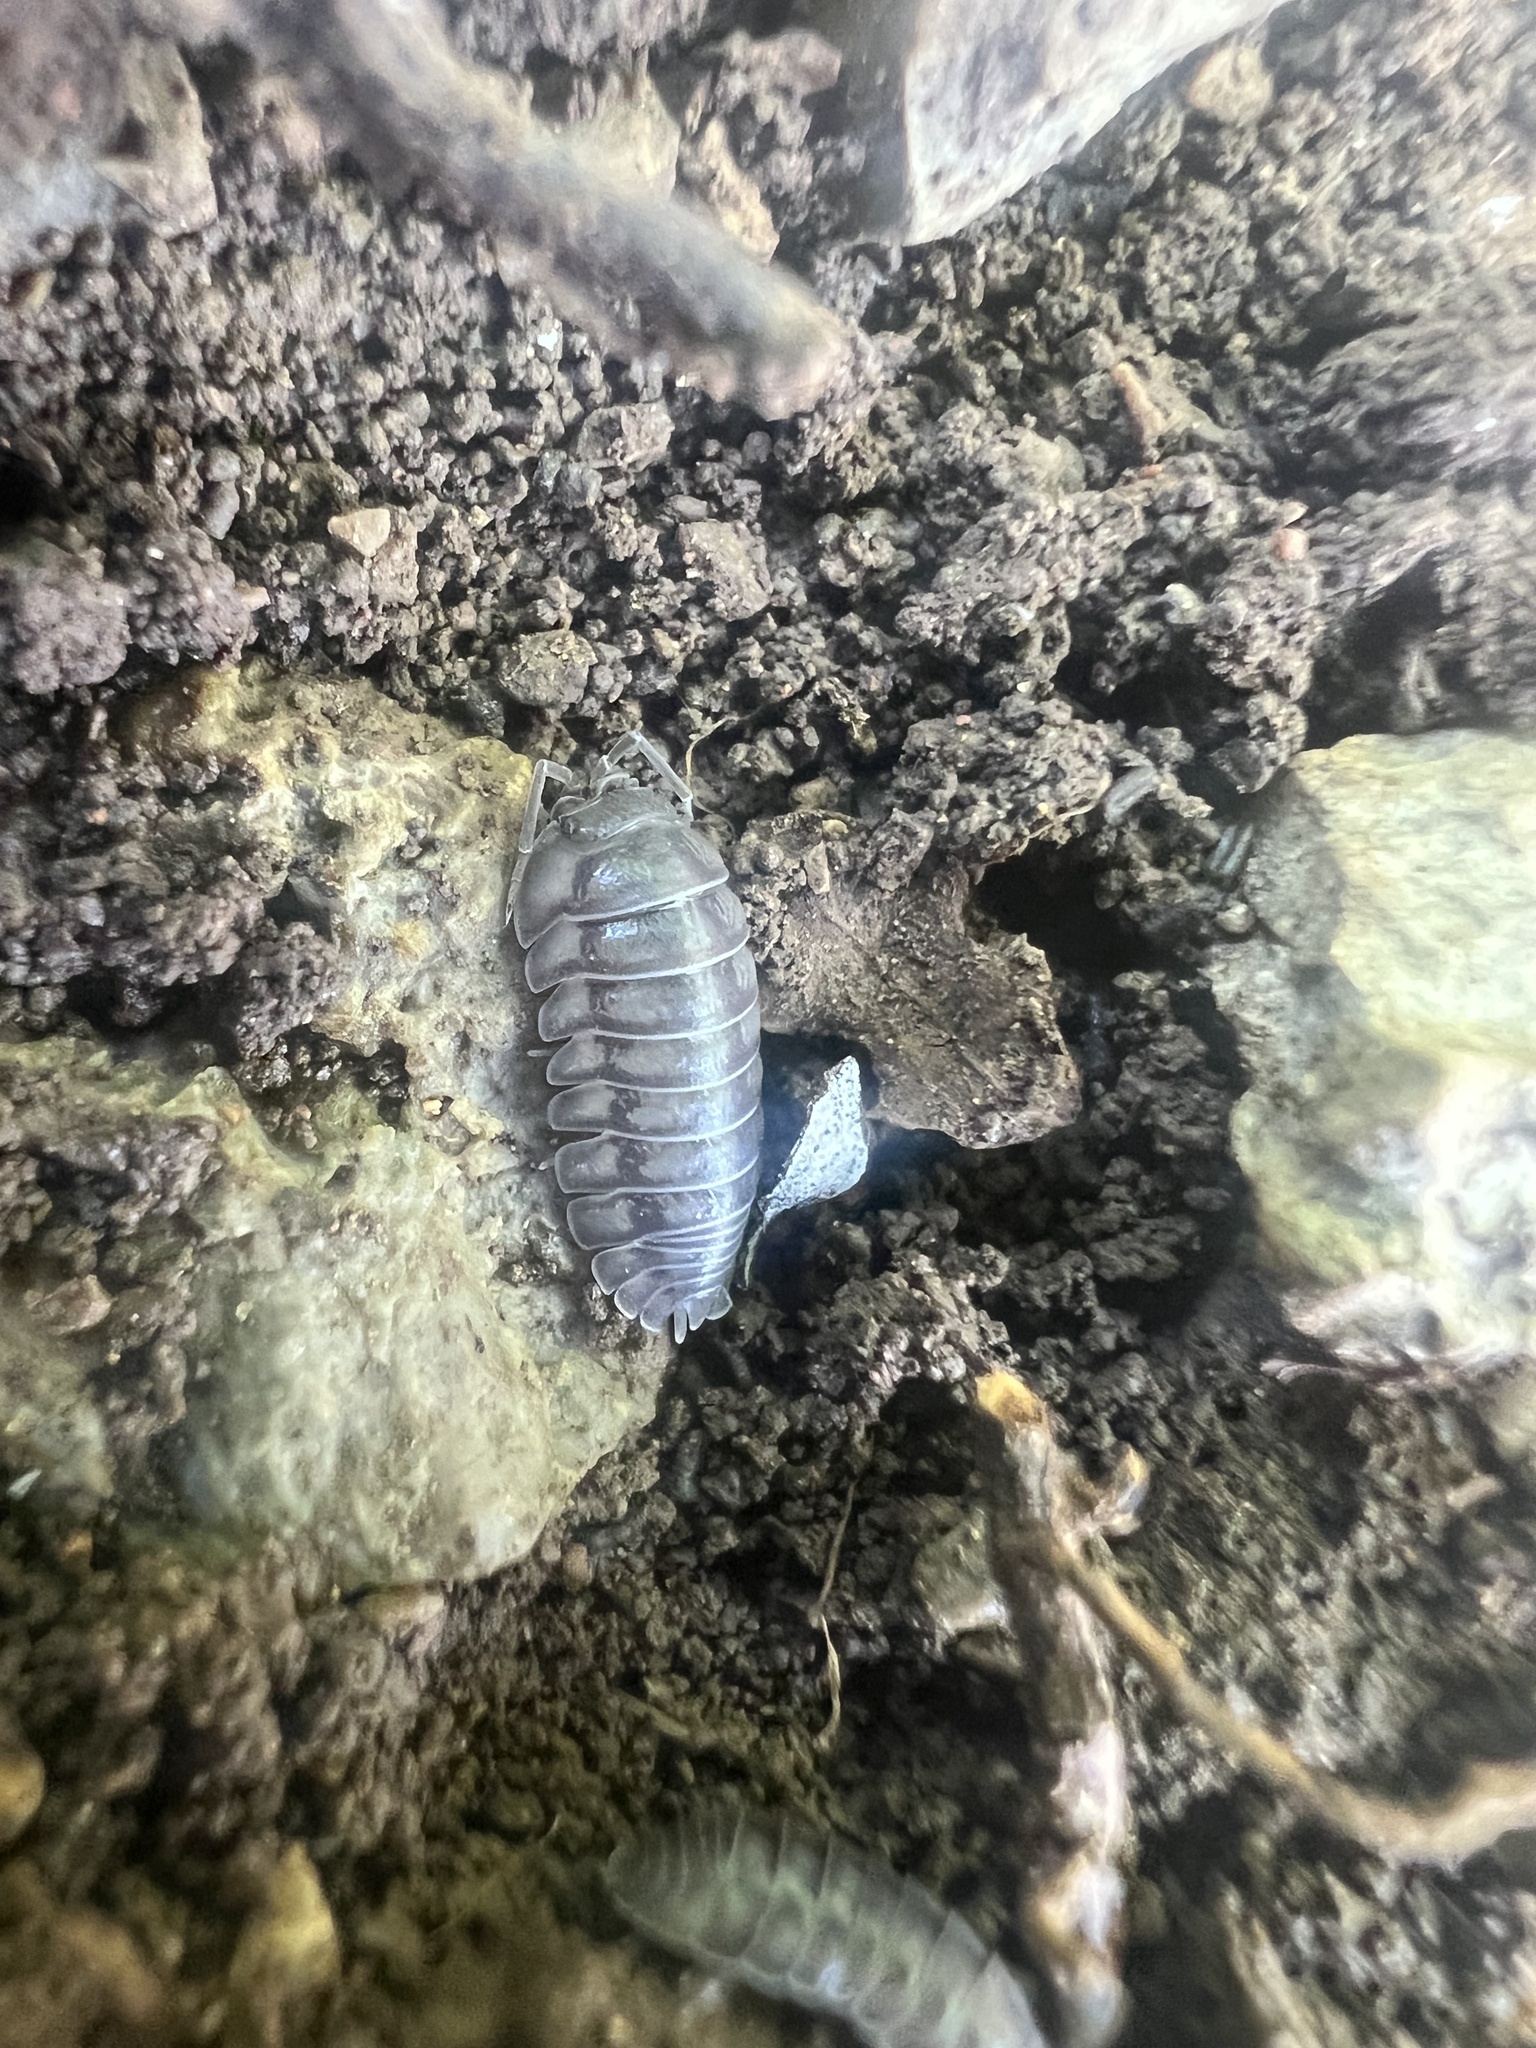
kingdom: Animalia
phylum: Arthropoda
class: Malacostraca
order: Isopoda
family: Armadillidiidae
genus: Armadillidium
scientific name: Armadillidium nasatum
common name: Isopod
